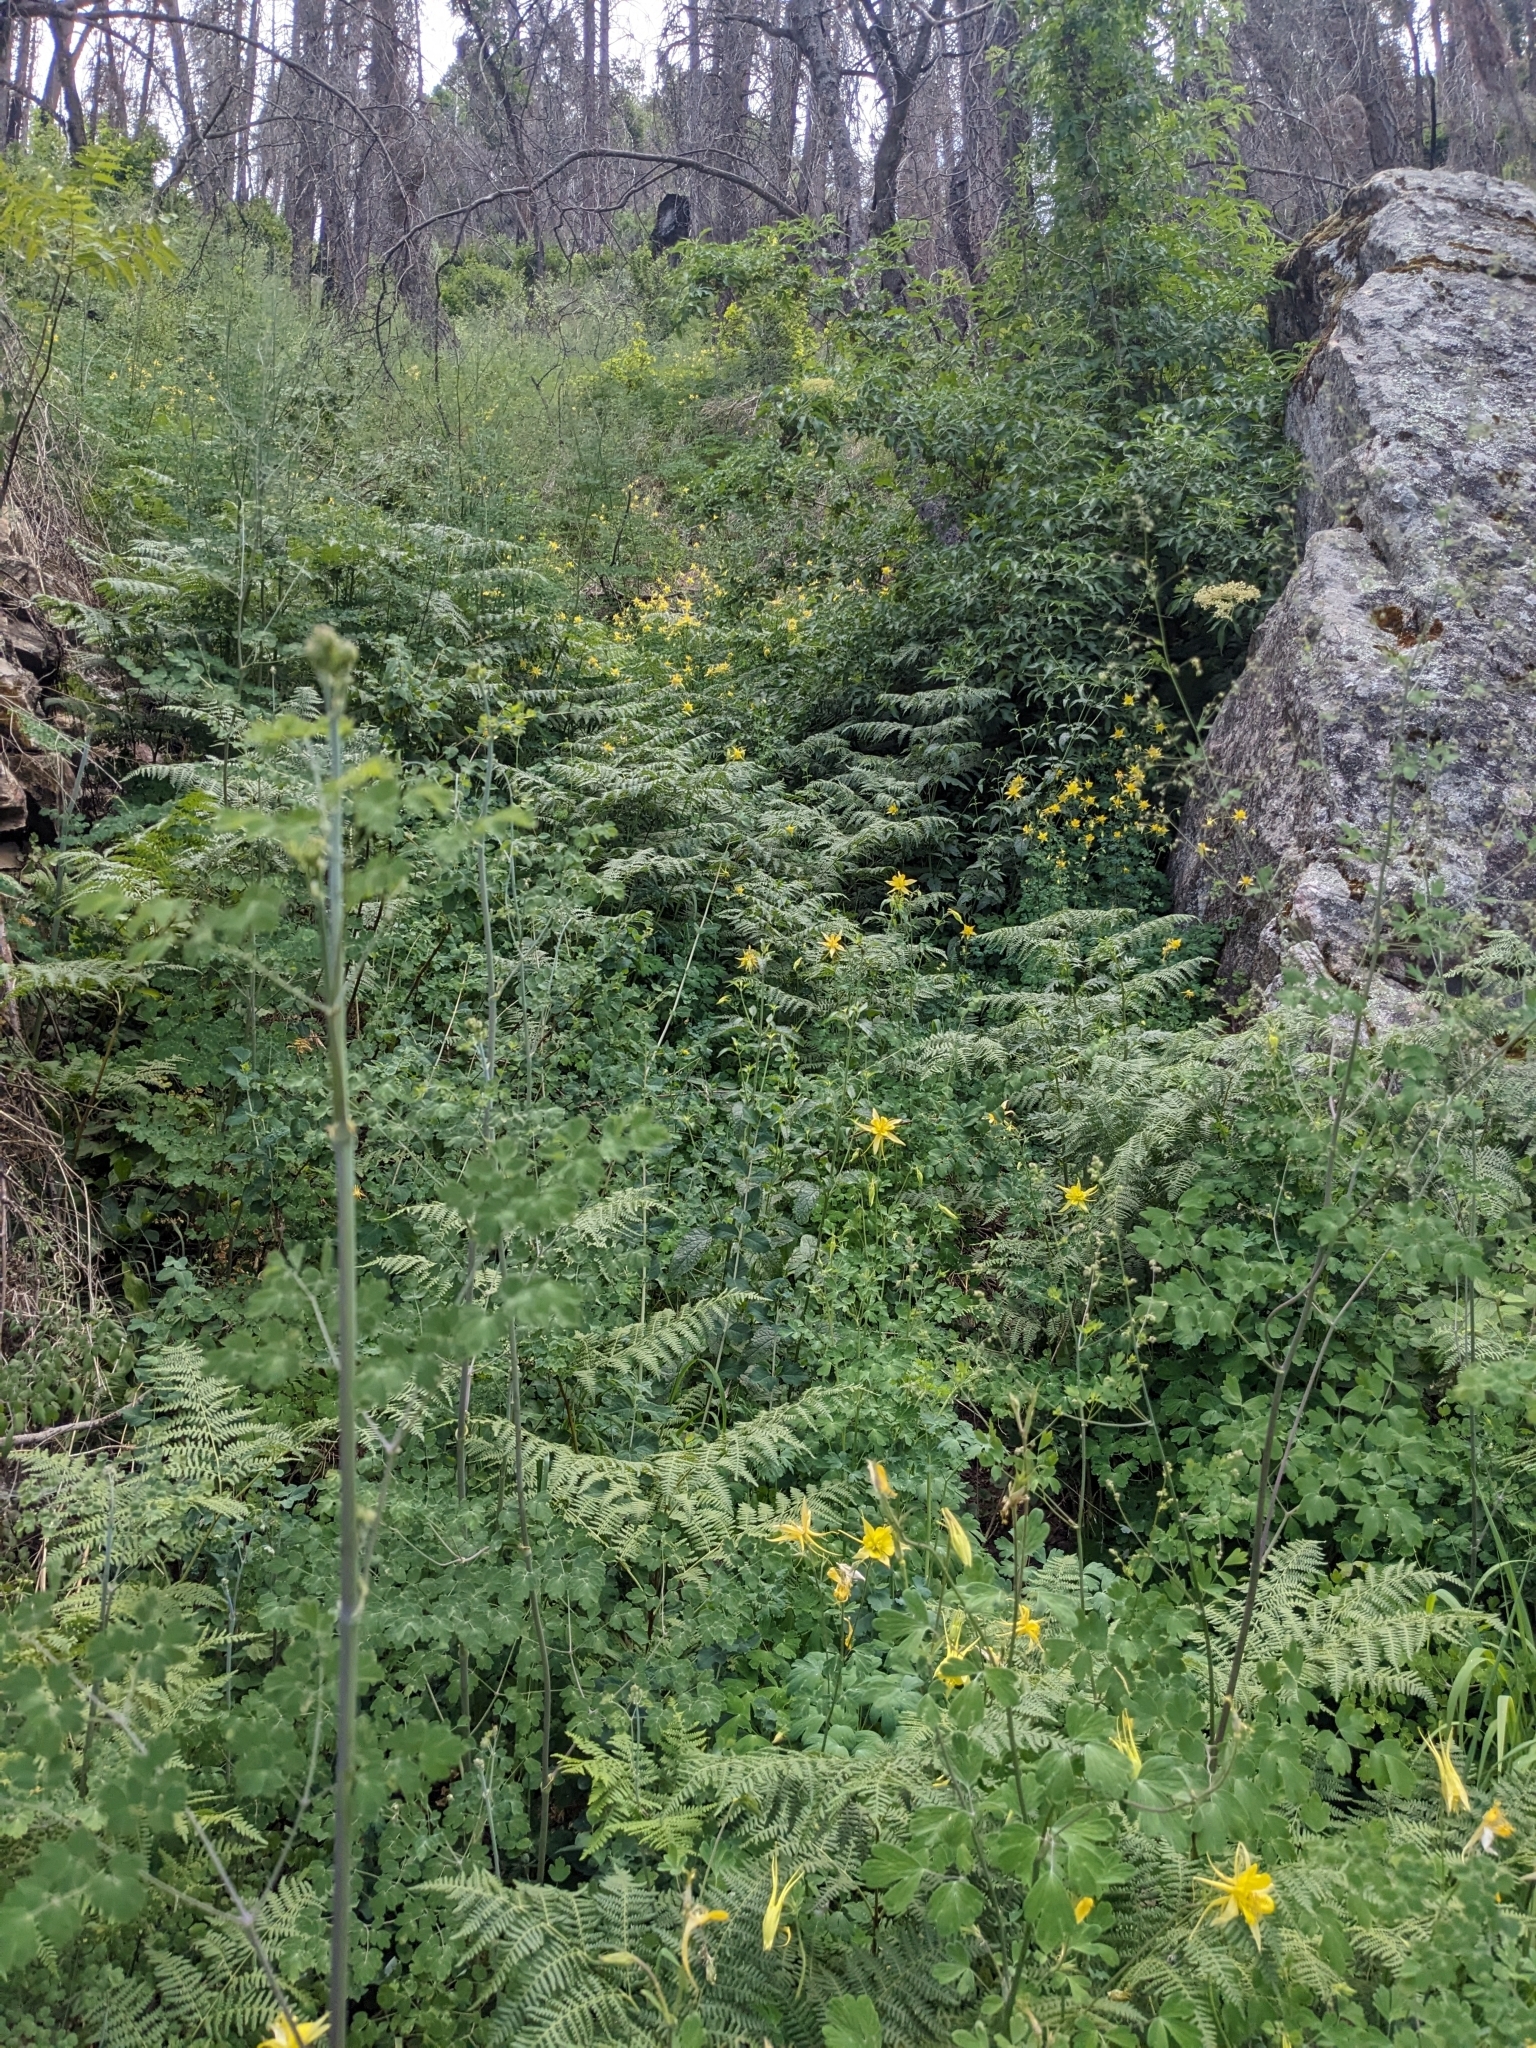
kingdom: Plantae
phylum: Tracheophyta
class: Magnoliopsida
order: Ranunculales
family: Ranunculaceae
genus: Aquilegia
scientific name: Aquilegia chrysantha
